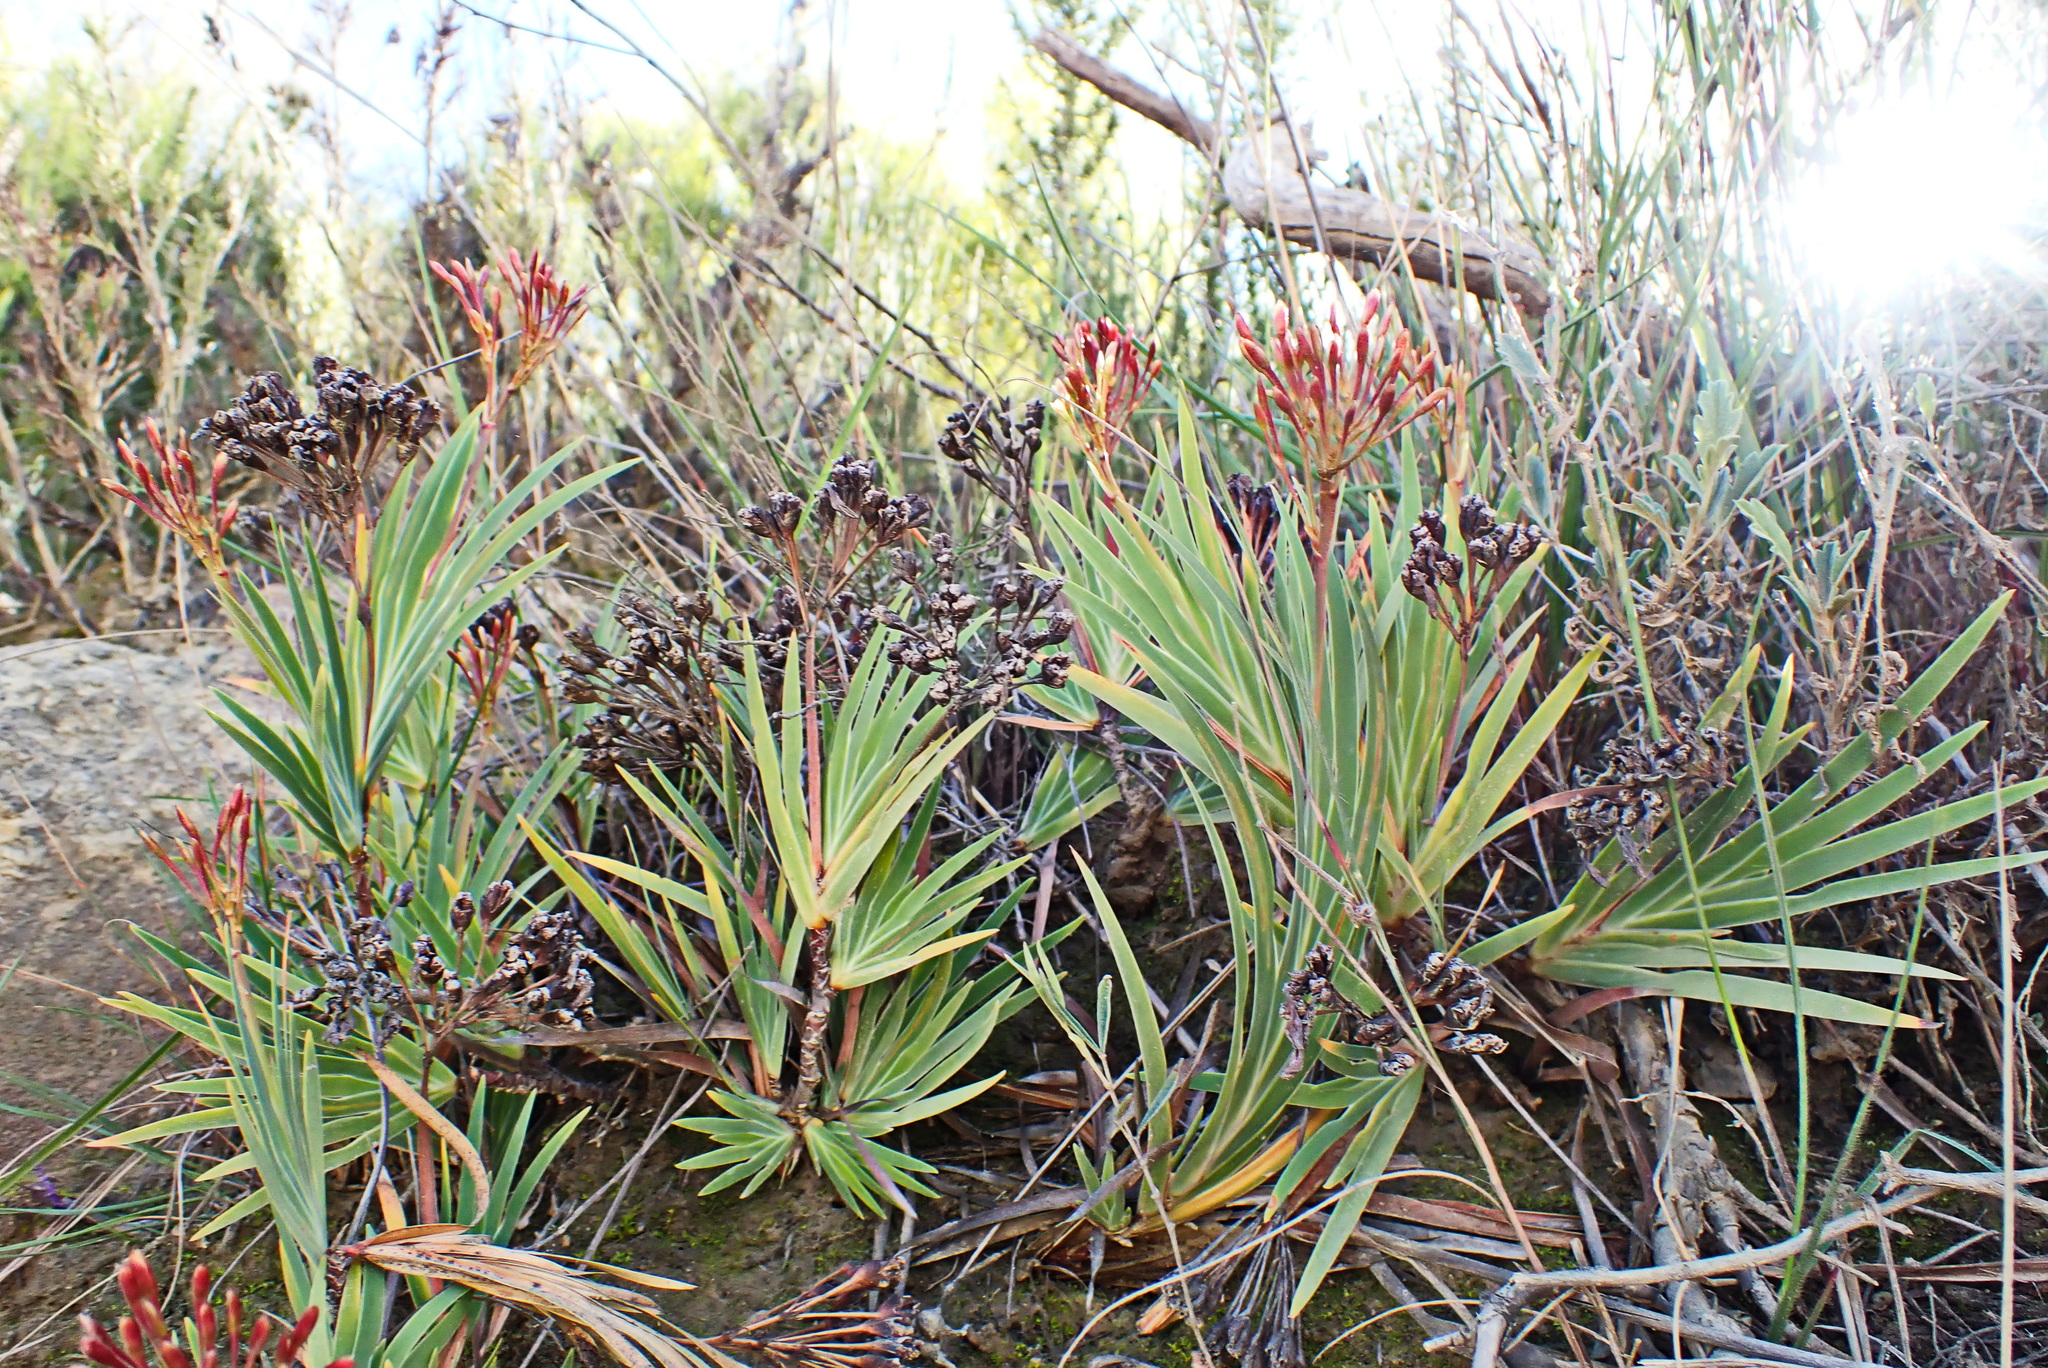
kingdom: Plantae
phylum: Tracheophyta
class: Liliopsida
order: Asparagales
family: Iridaceae
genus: Nivenia
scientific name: Nivenia binata
